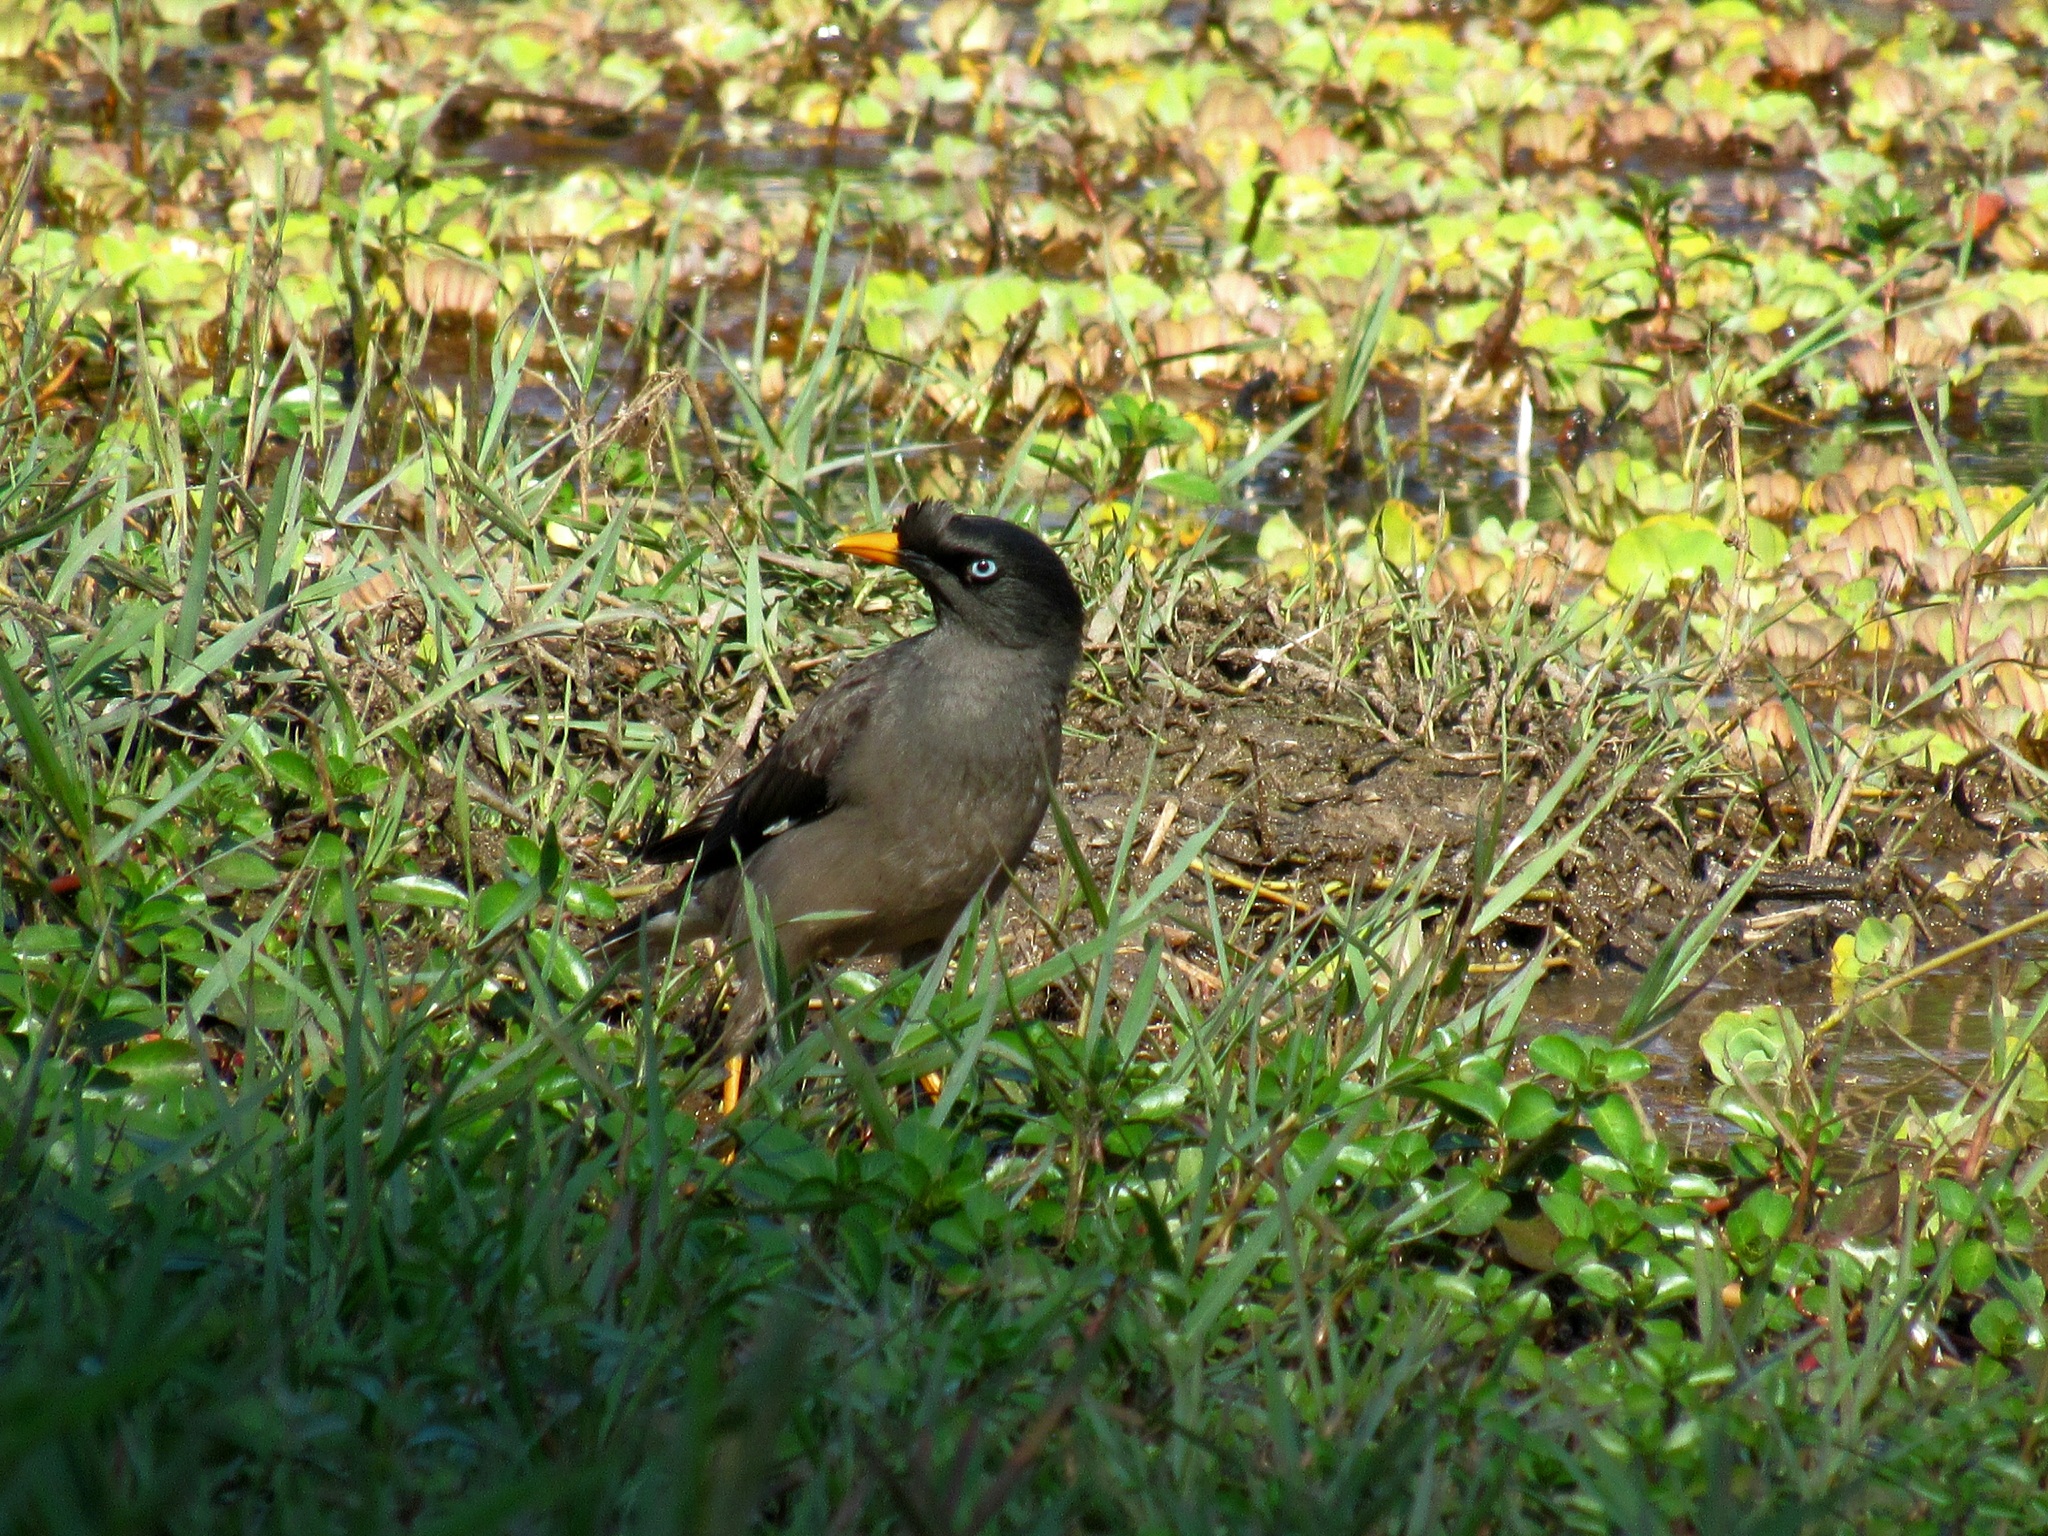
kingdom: Animalia
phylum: Chordata
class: Aves
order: Passeriformes
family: Sturnidae
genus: Acridotheres
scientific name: Acridotheres fuscus
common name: Jungle myna
